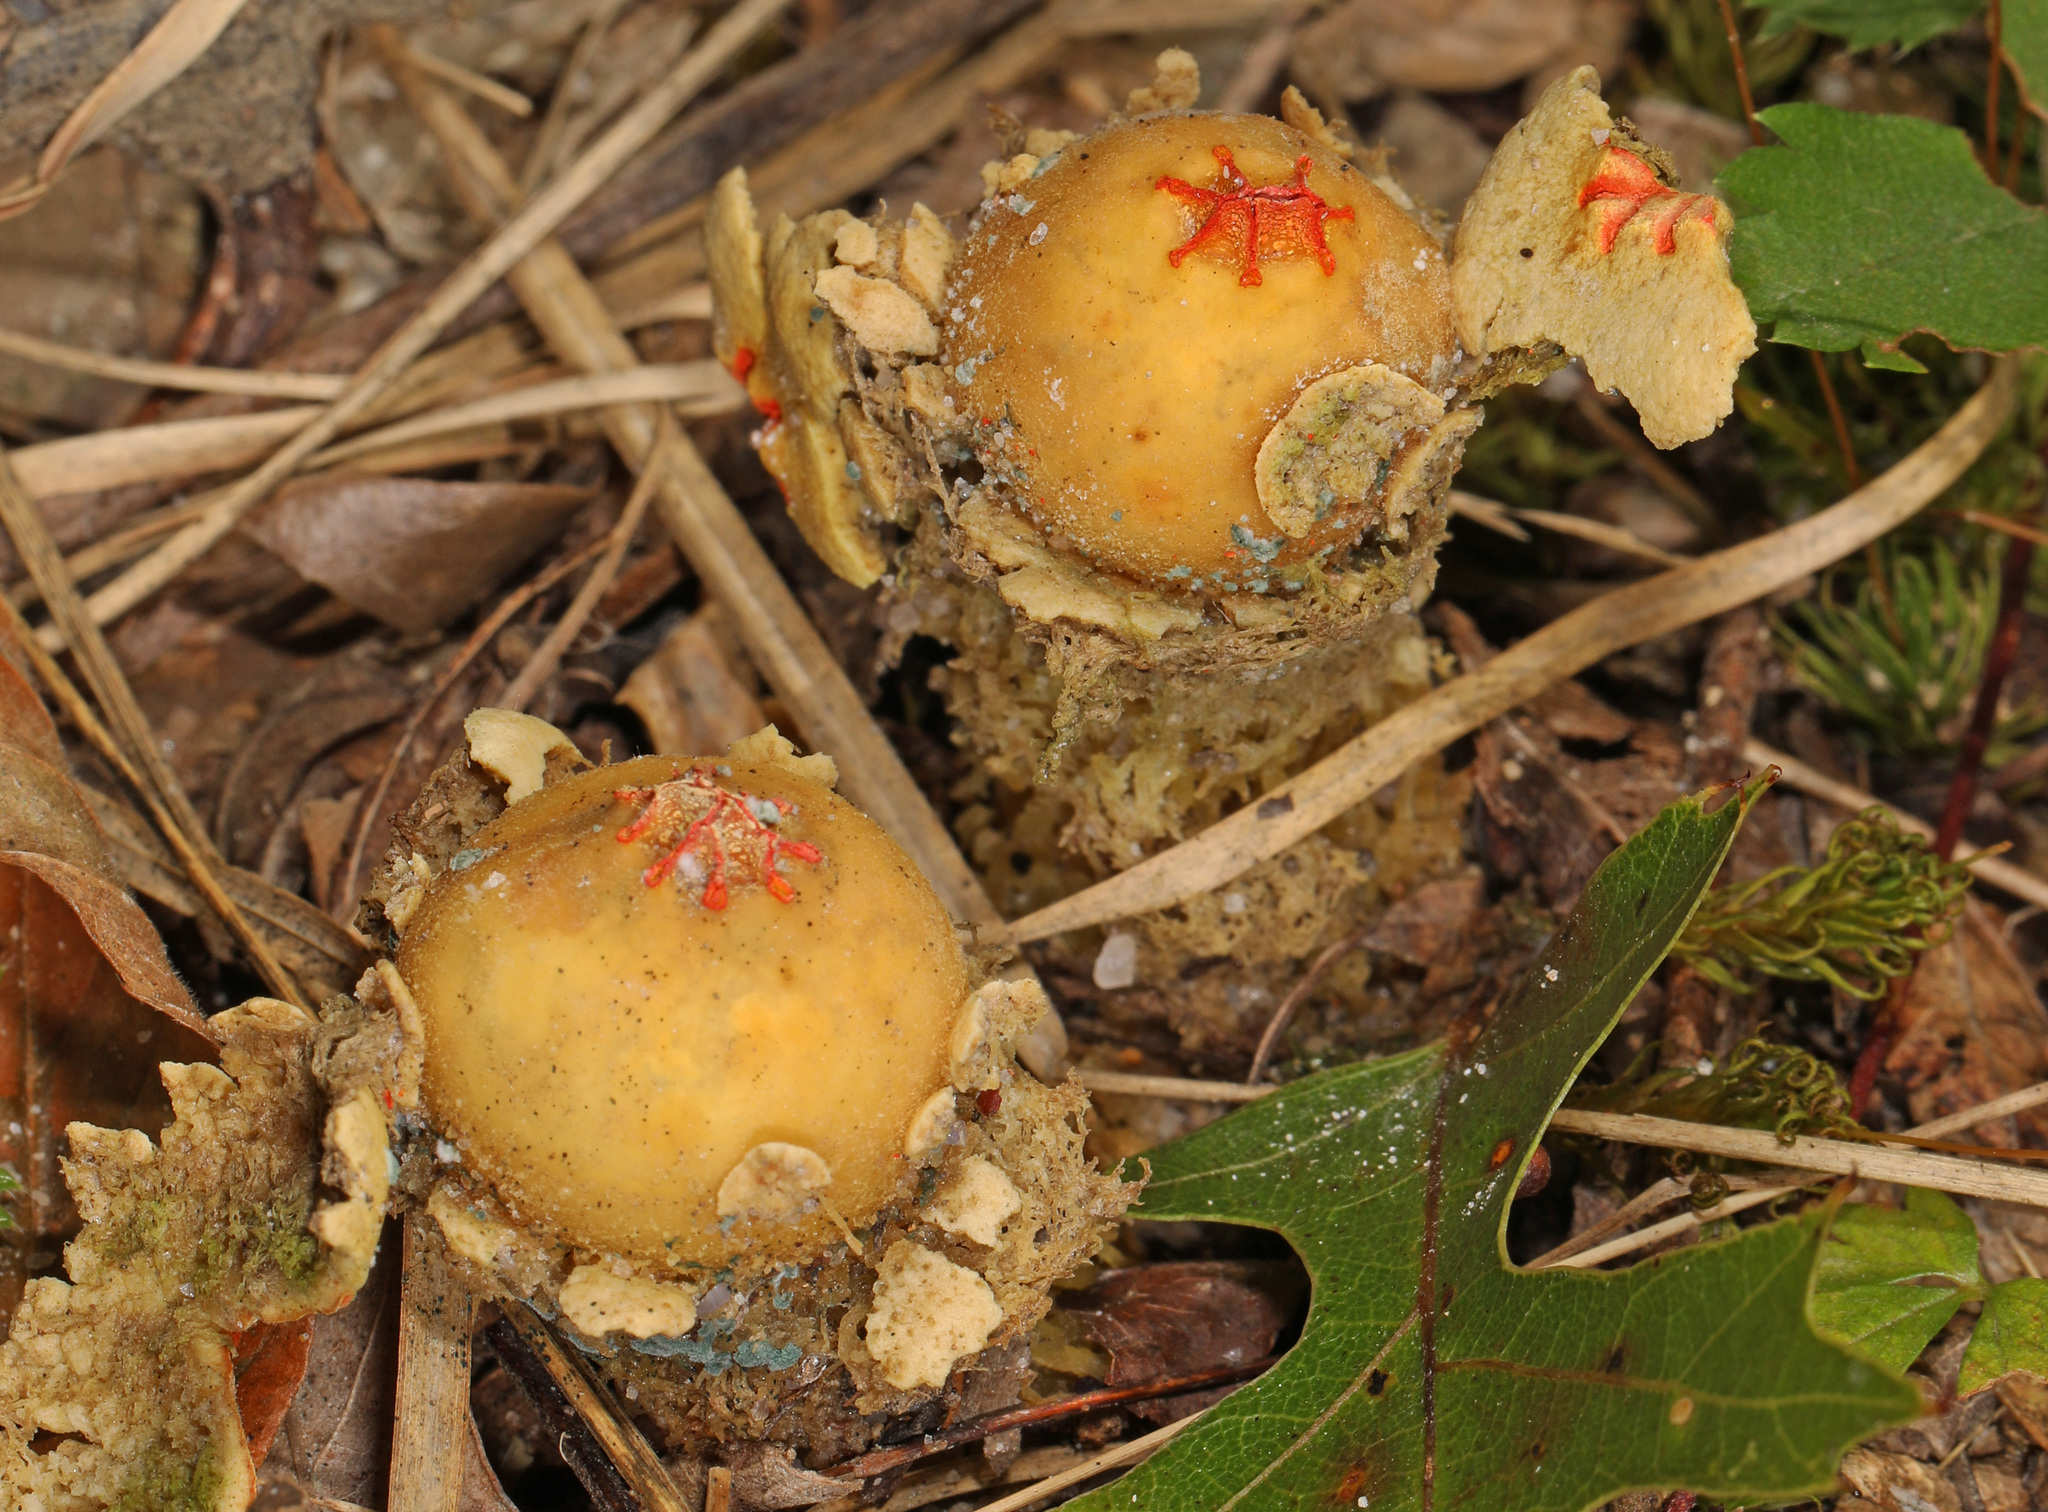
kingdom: Fungi
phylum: Basidiomycota
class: Agaricomycetes
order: Boletales
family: Calostomataceae
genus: Calostoma
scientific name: Calostoma lutescens
